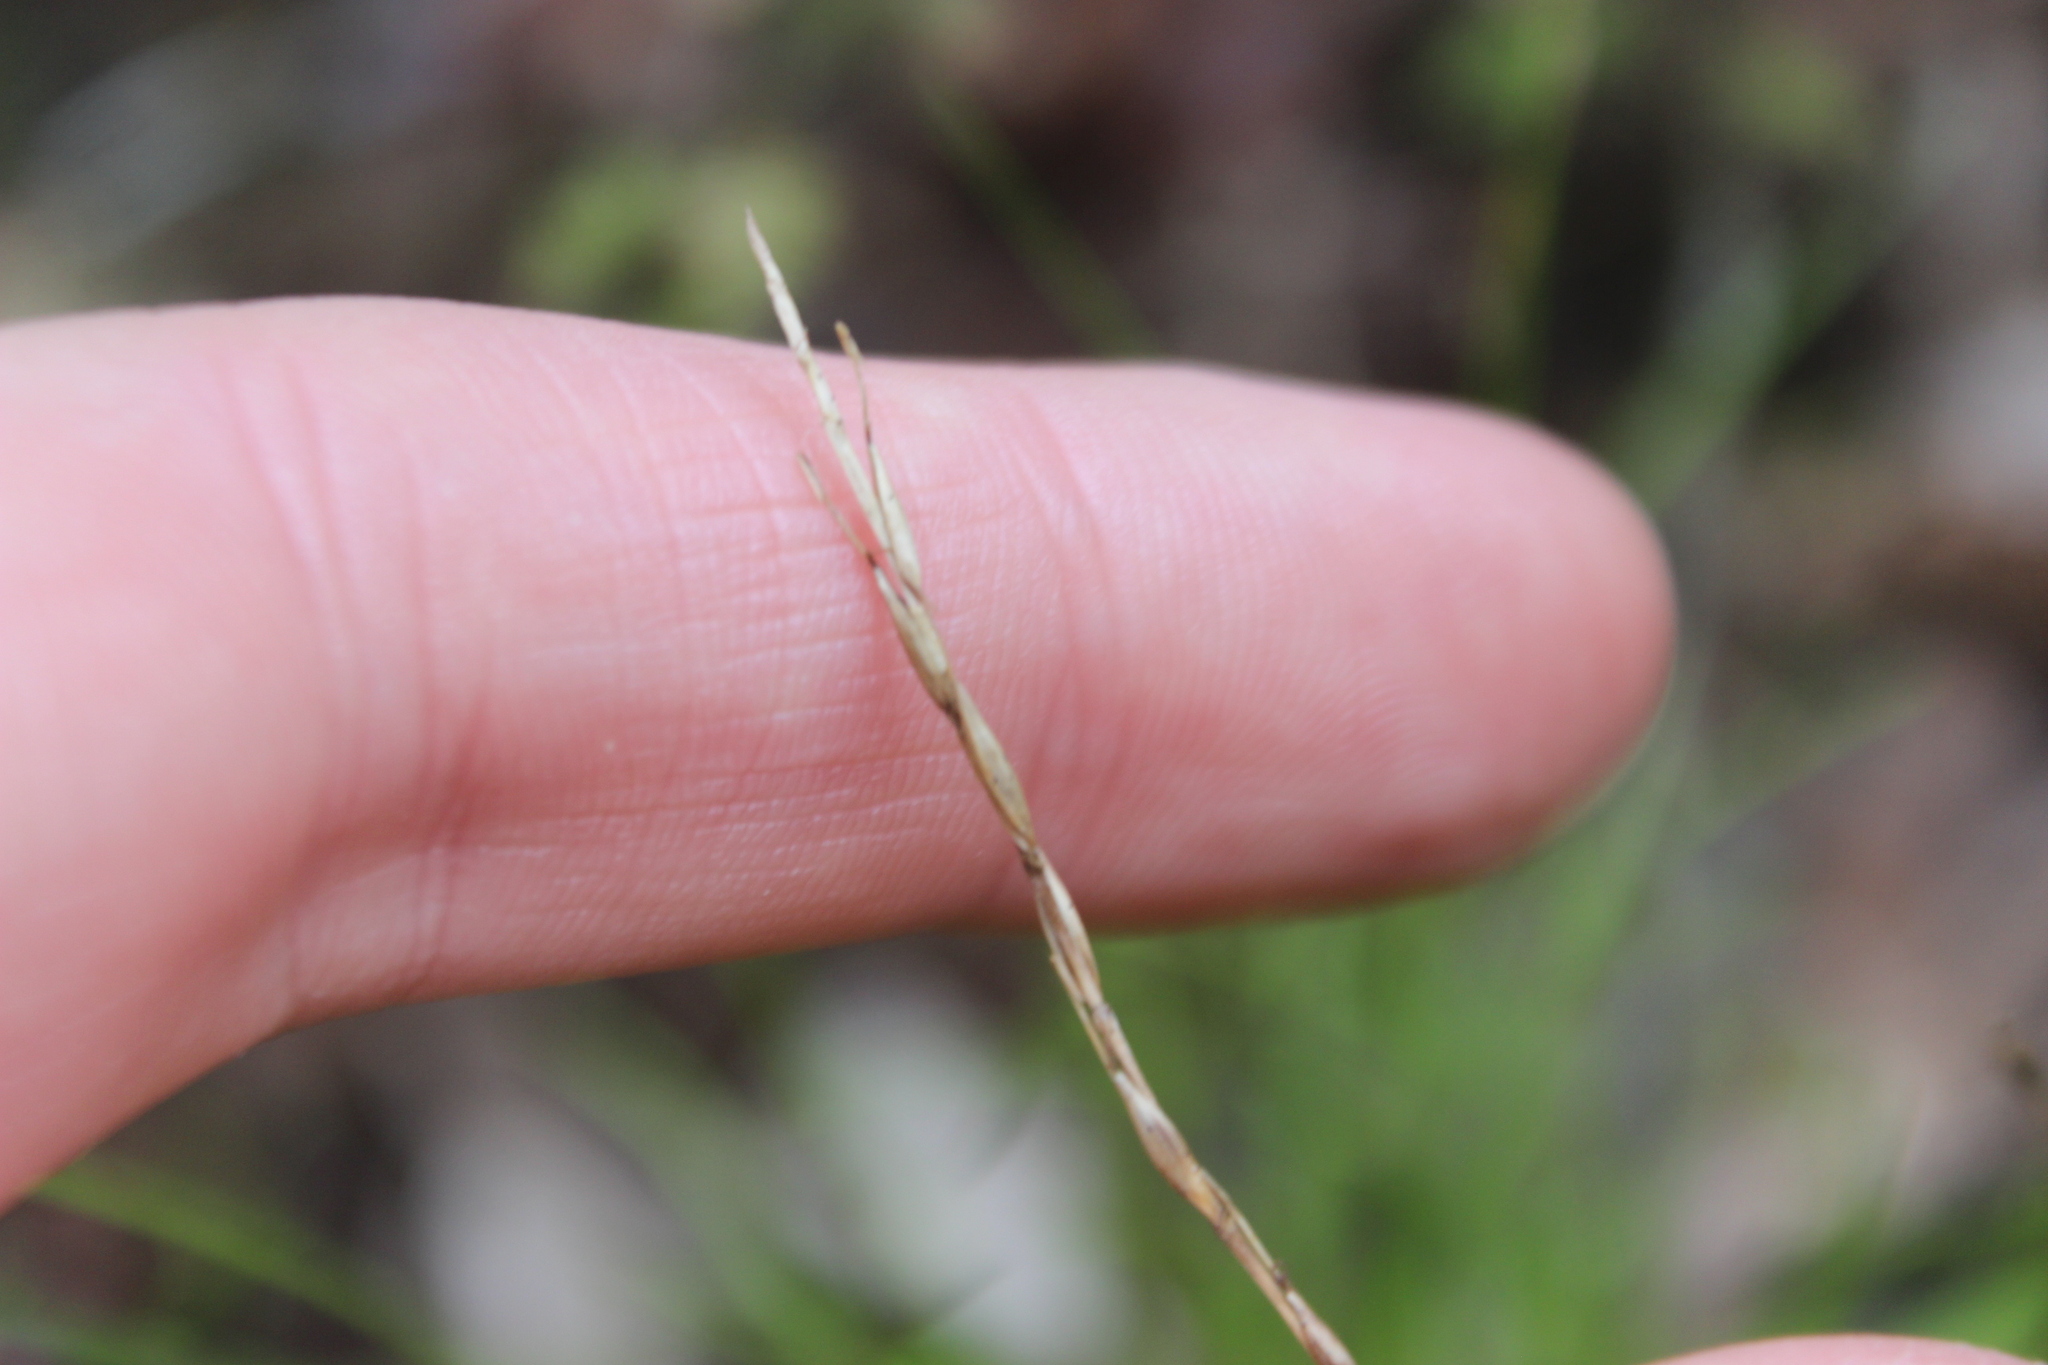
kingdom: Plantae
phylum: Tracheophyta
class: Liliopsida
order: Poales
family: Cyperaceae
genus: Carex
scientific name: Carex uncinata
